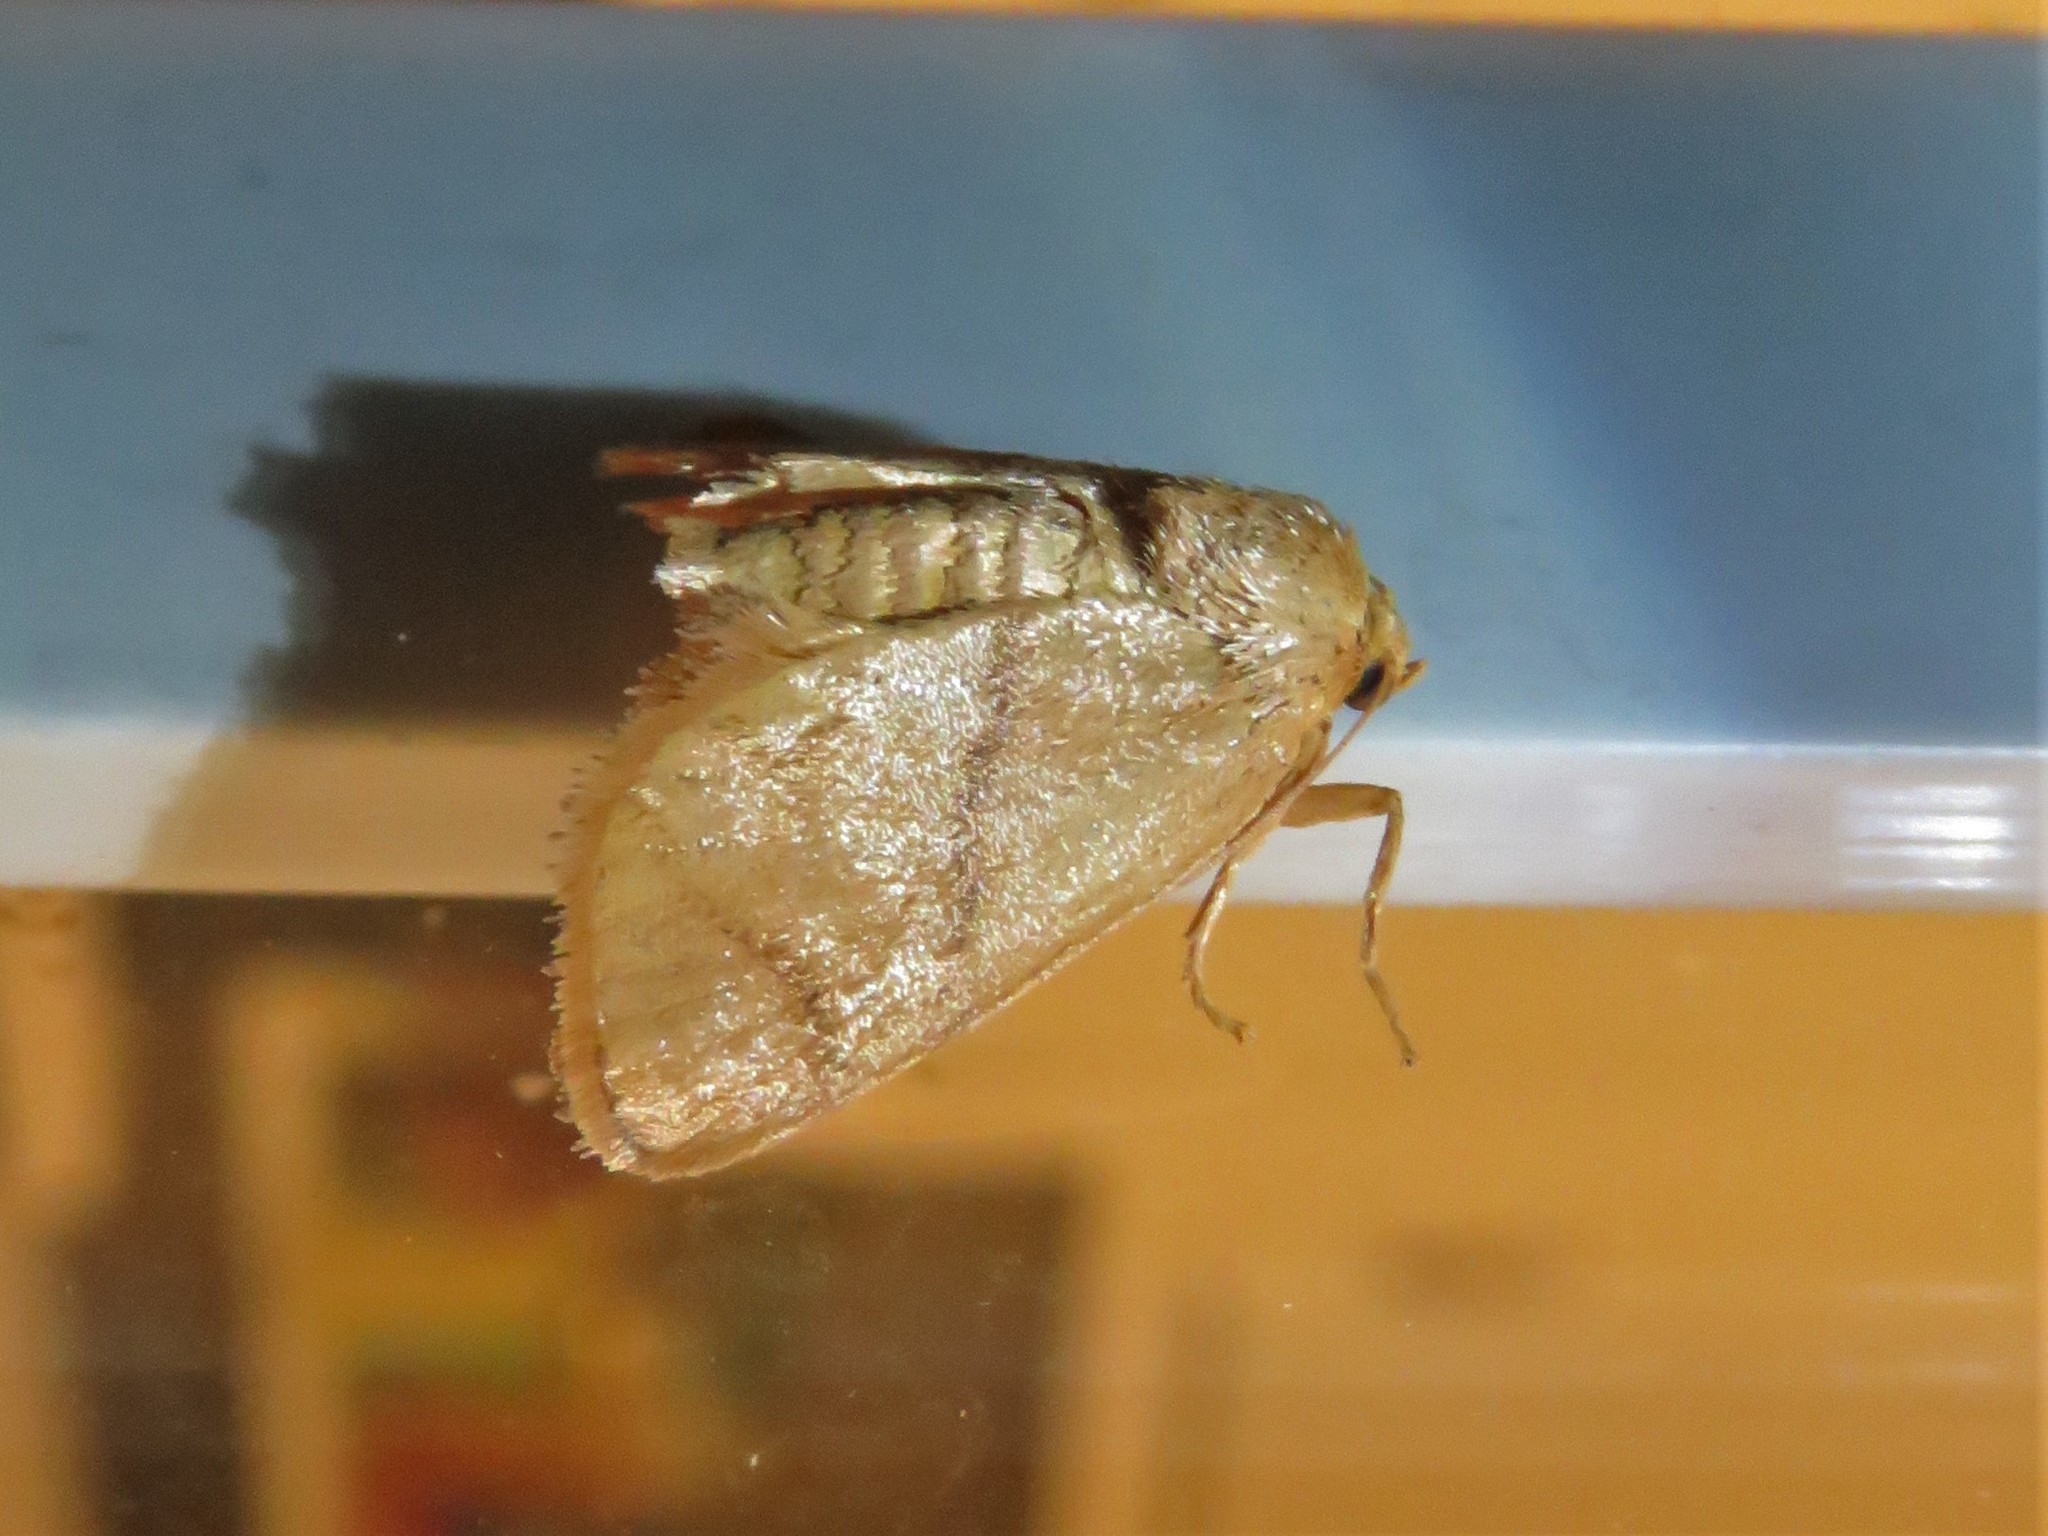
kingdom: Animalia
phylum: Arthropoda
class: Insecta
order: Lepidoptera
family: Limacodidae
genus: Apoda
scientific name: Apoda y-inversa
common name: Yellow-collared slug moth
